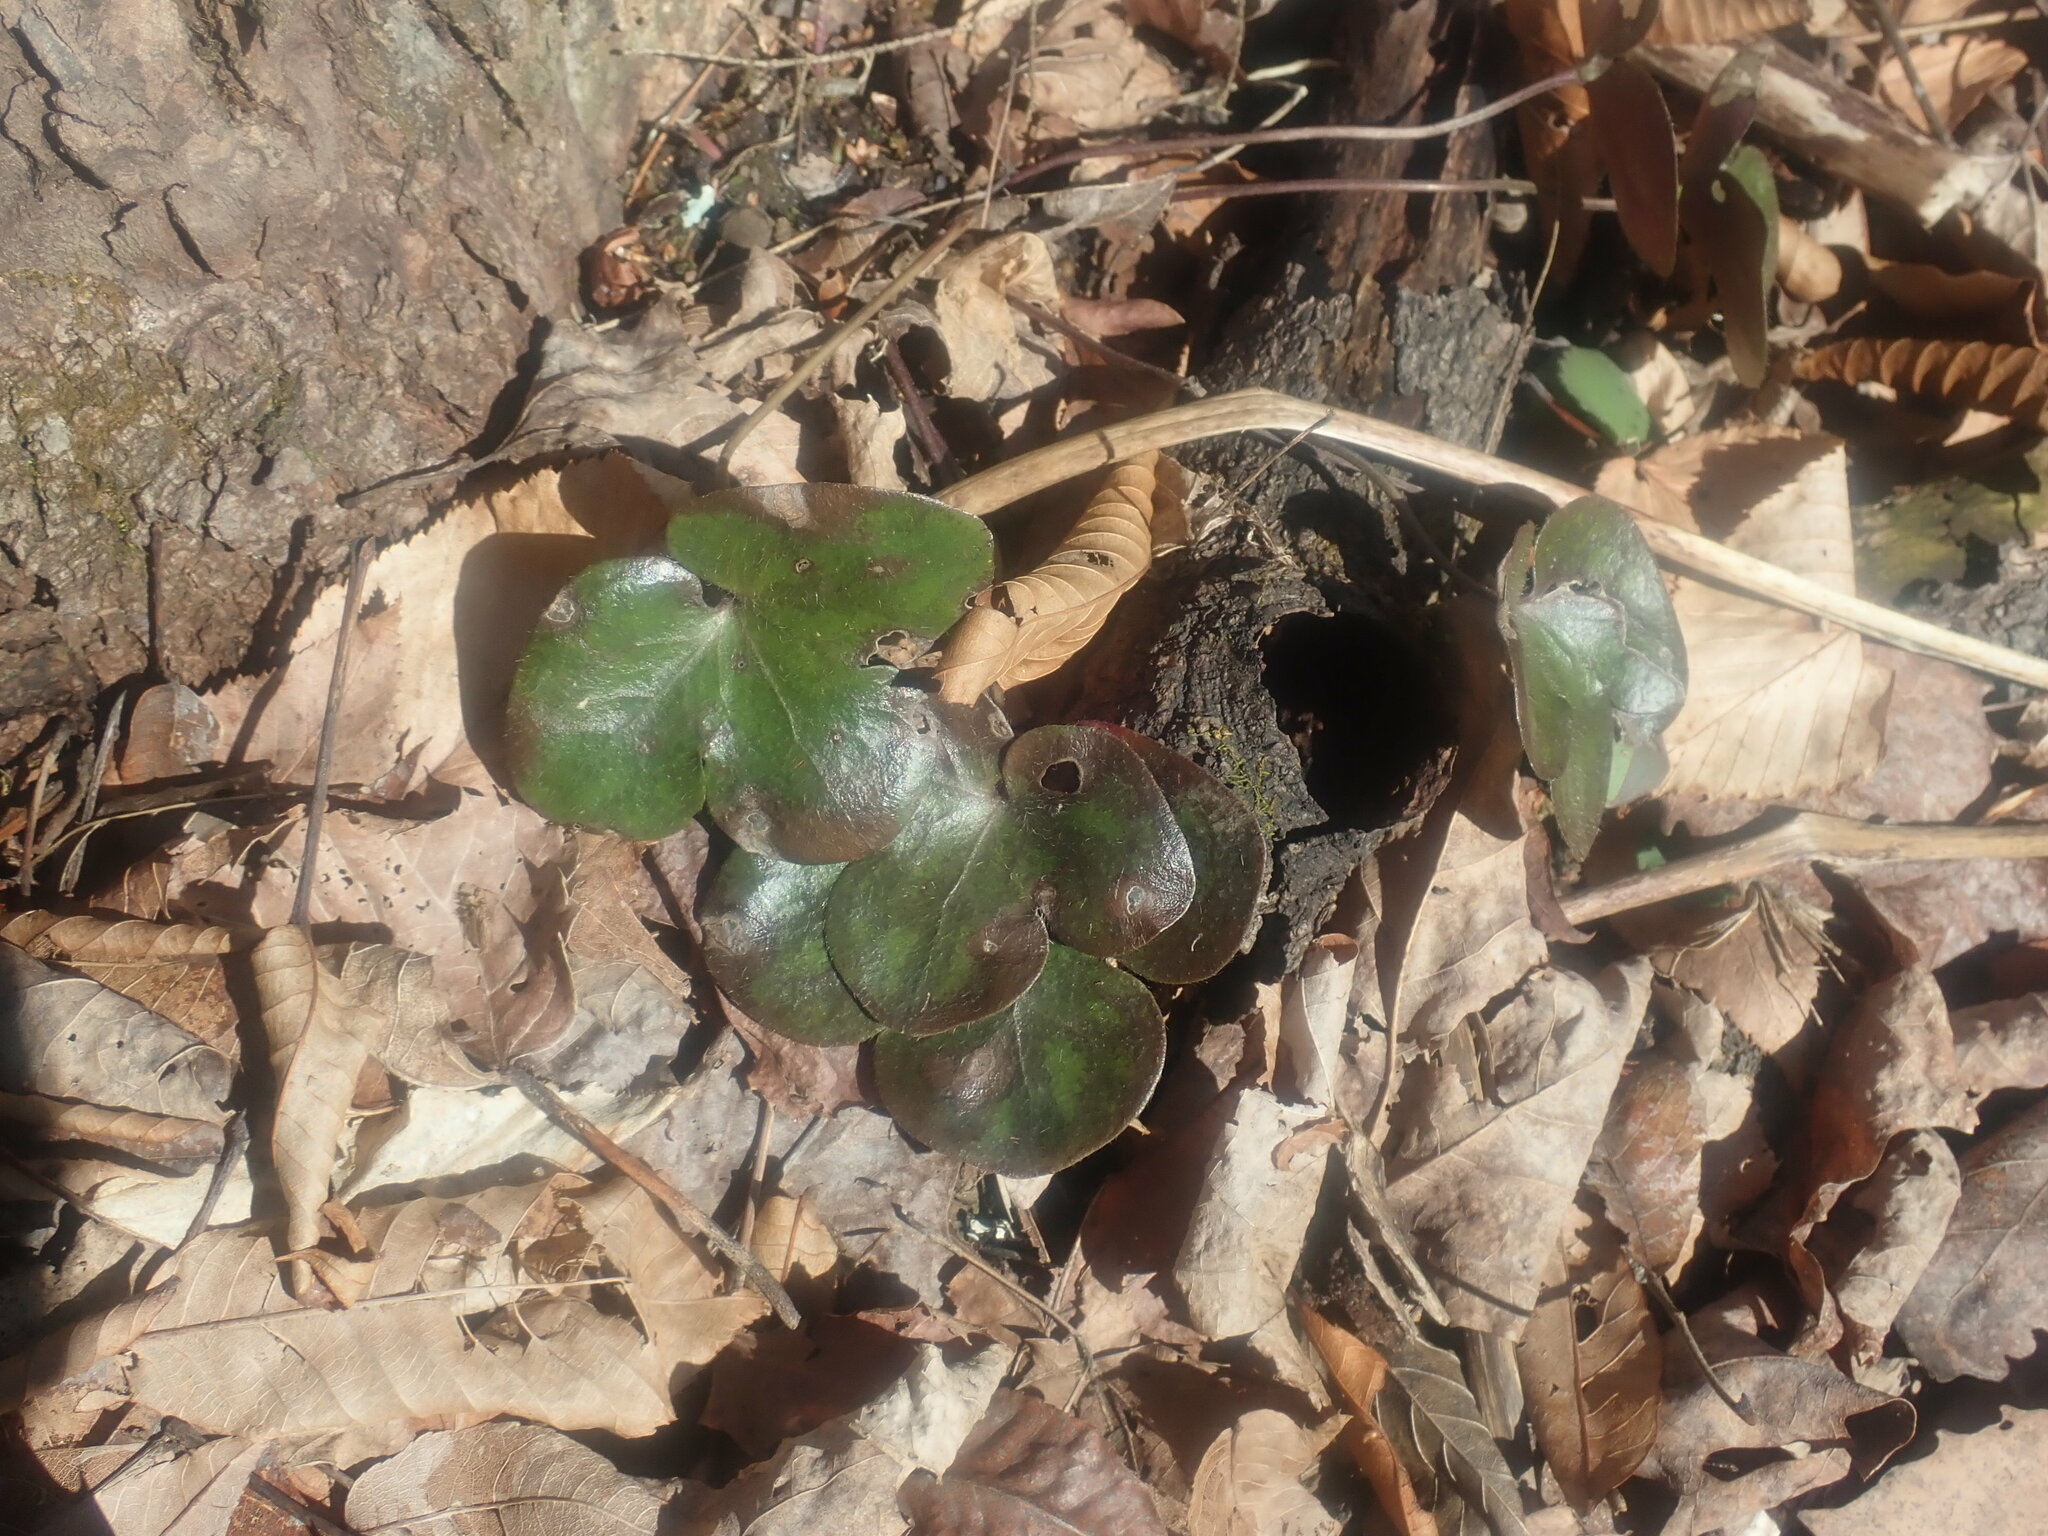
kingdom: Plantae
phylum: Tracheophyta
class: Magnoliopsida
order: Ranunculales
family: Ranunculaceae
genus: Hepatica
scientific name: Hepatica americana
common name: American hepatica
